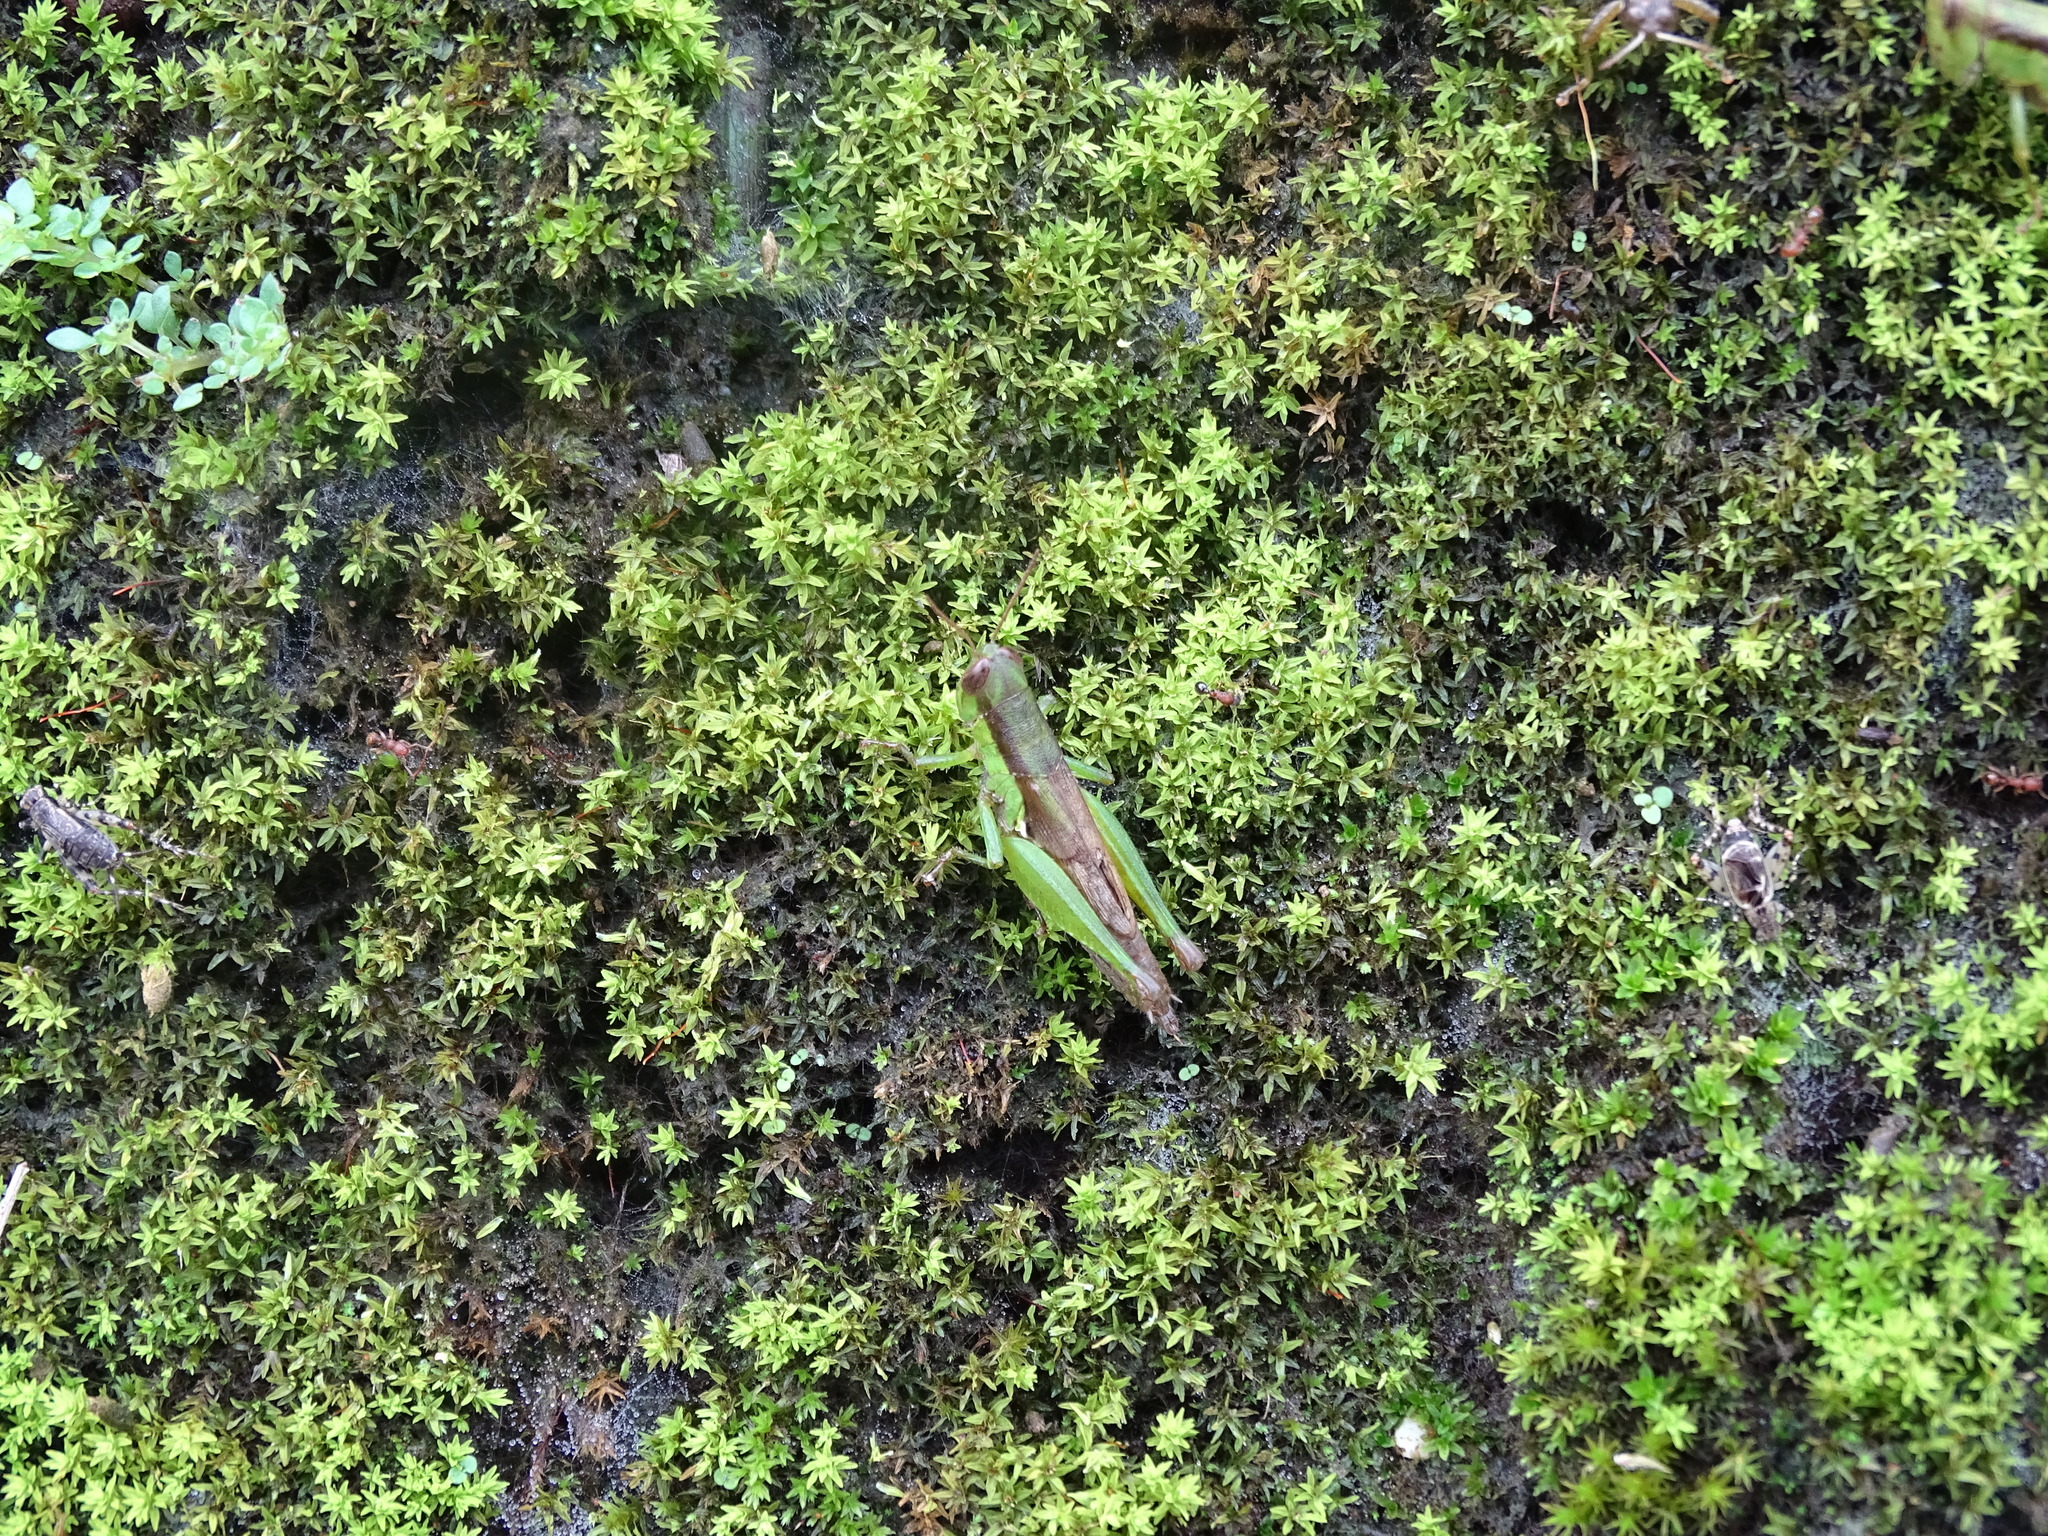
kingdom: Animalia
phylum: Arthropoda
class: Insecta
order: Orthoptera
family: Acrididae
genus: Pseudoxya
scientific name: Pseudoxya diminuta
